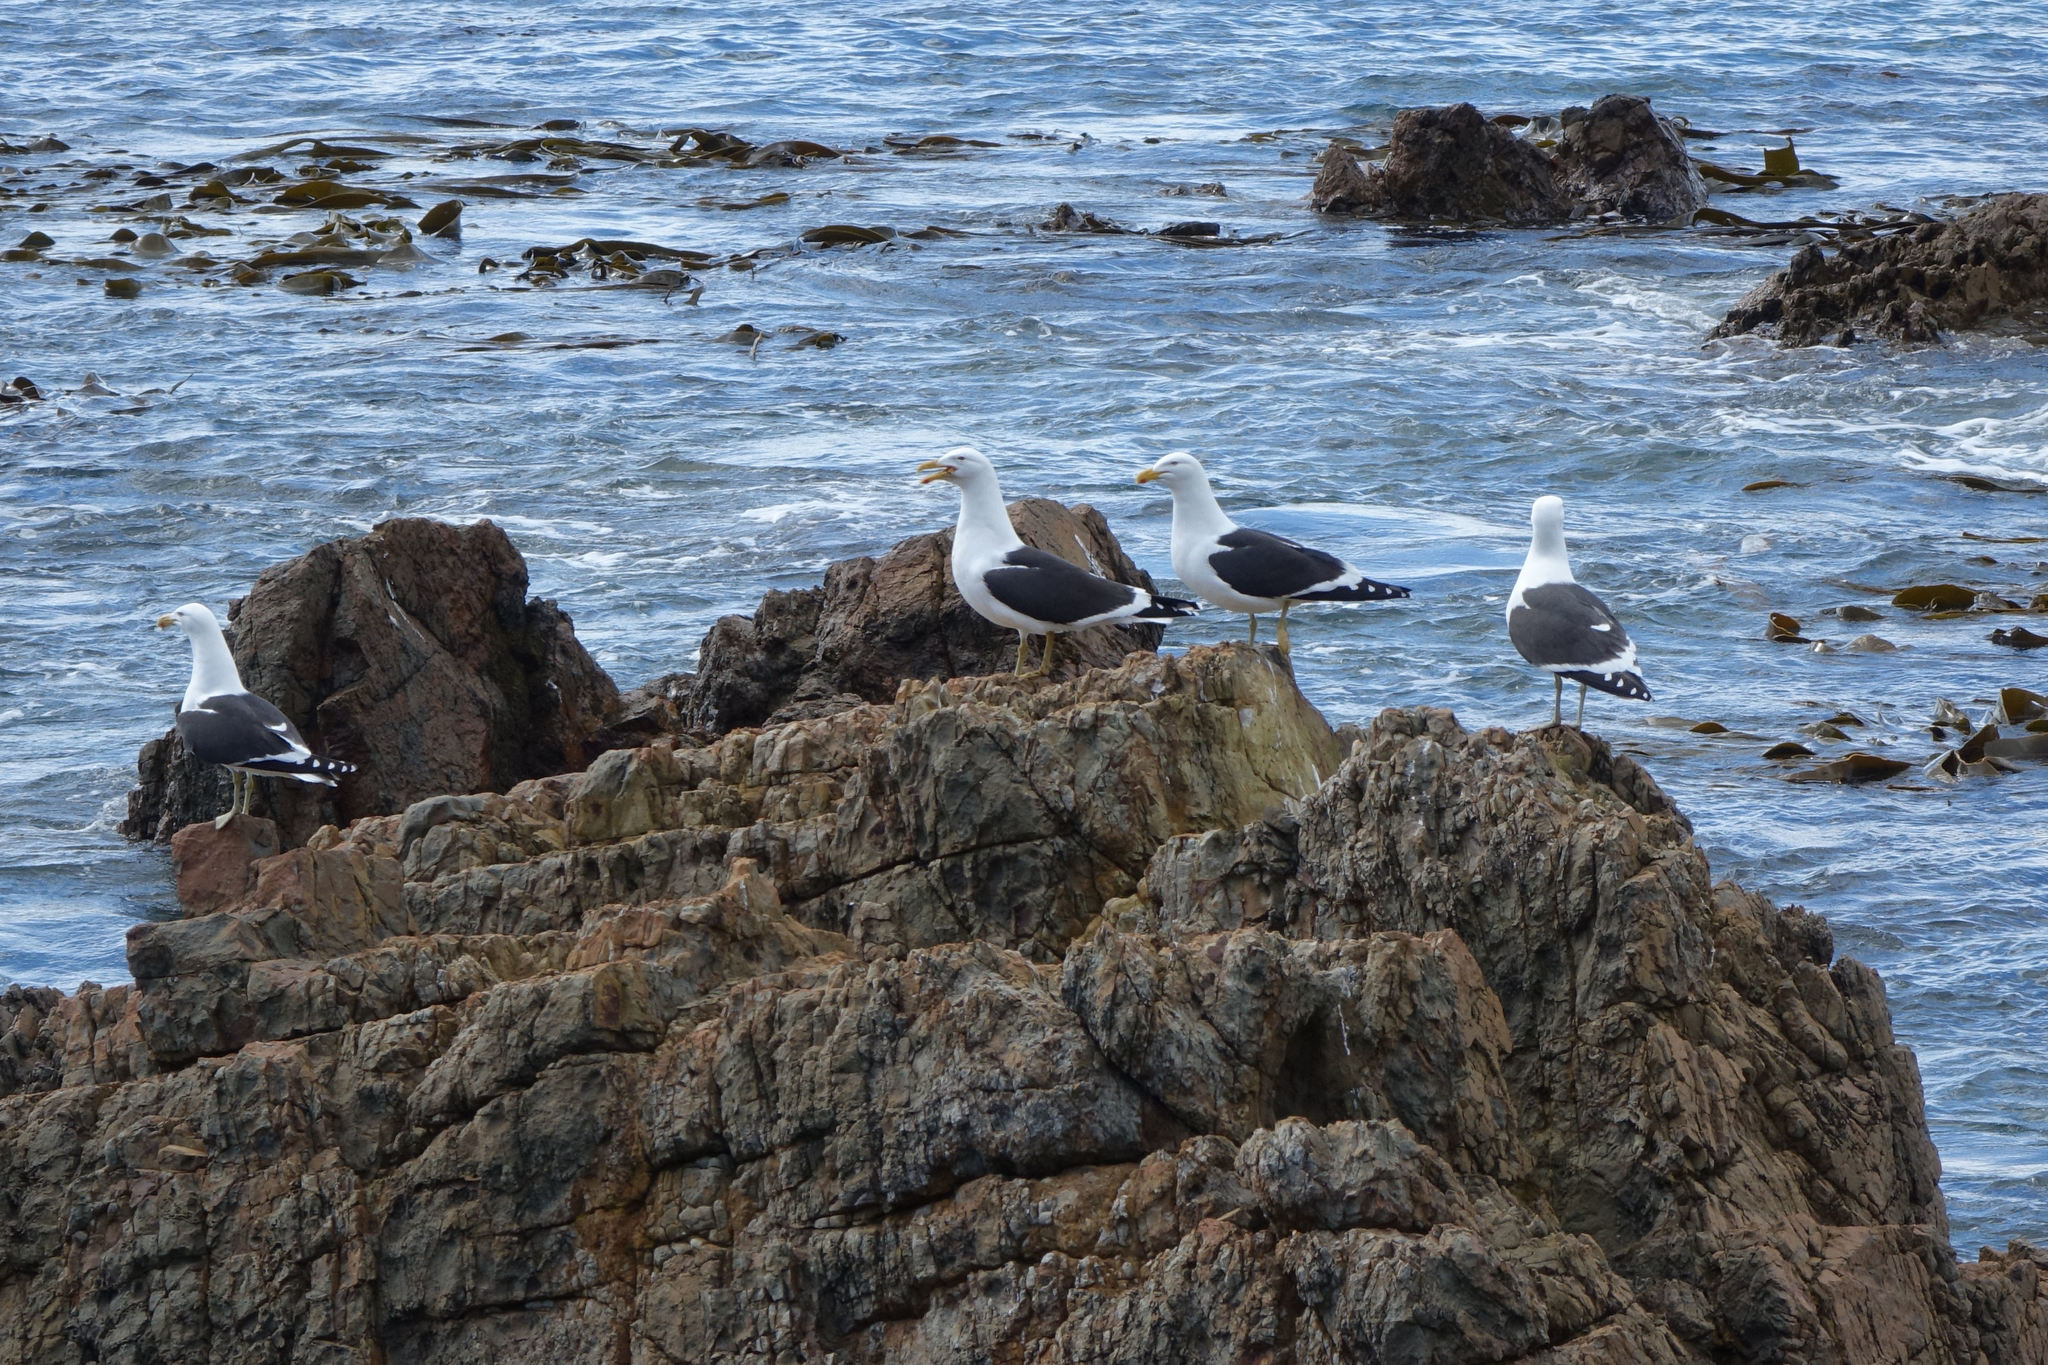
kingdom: Animalia
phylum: Chordata
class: Aves
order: Charadriiformes
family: Laridae
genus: Larus
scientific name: Larus dominicanus
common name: Kelp gull
